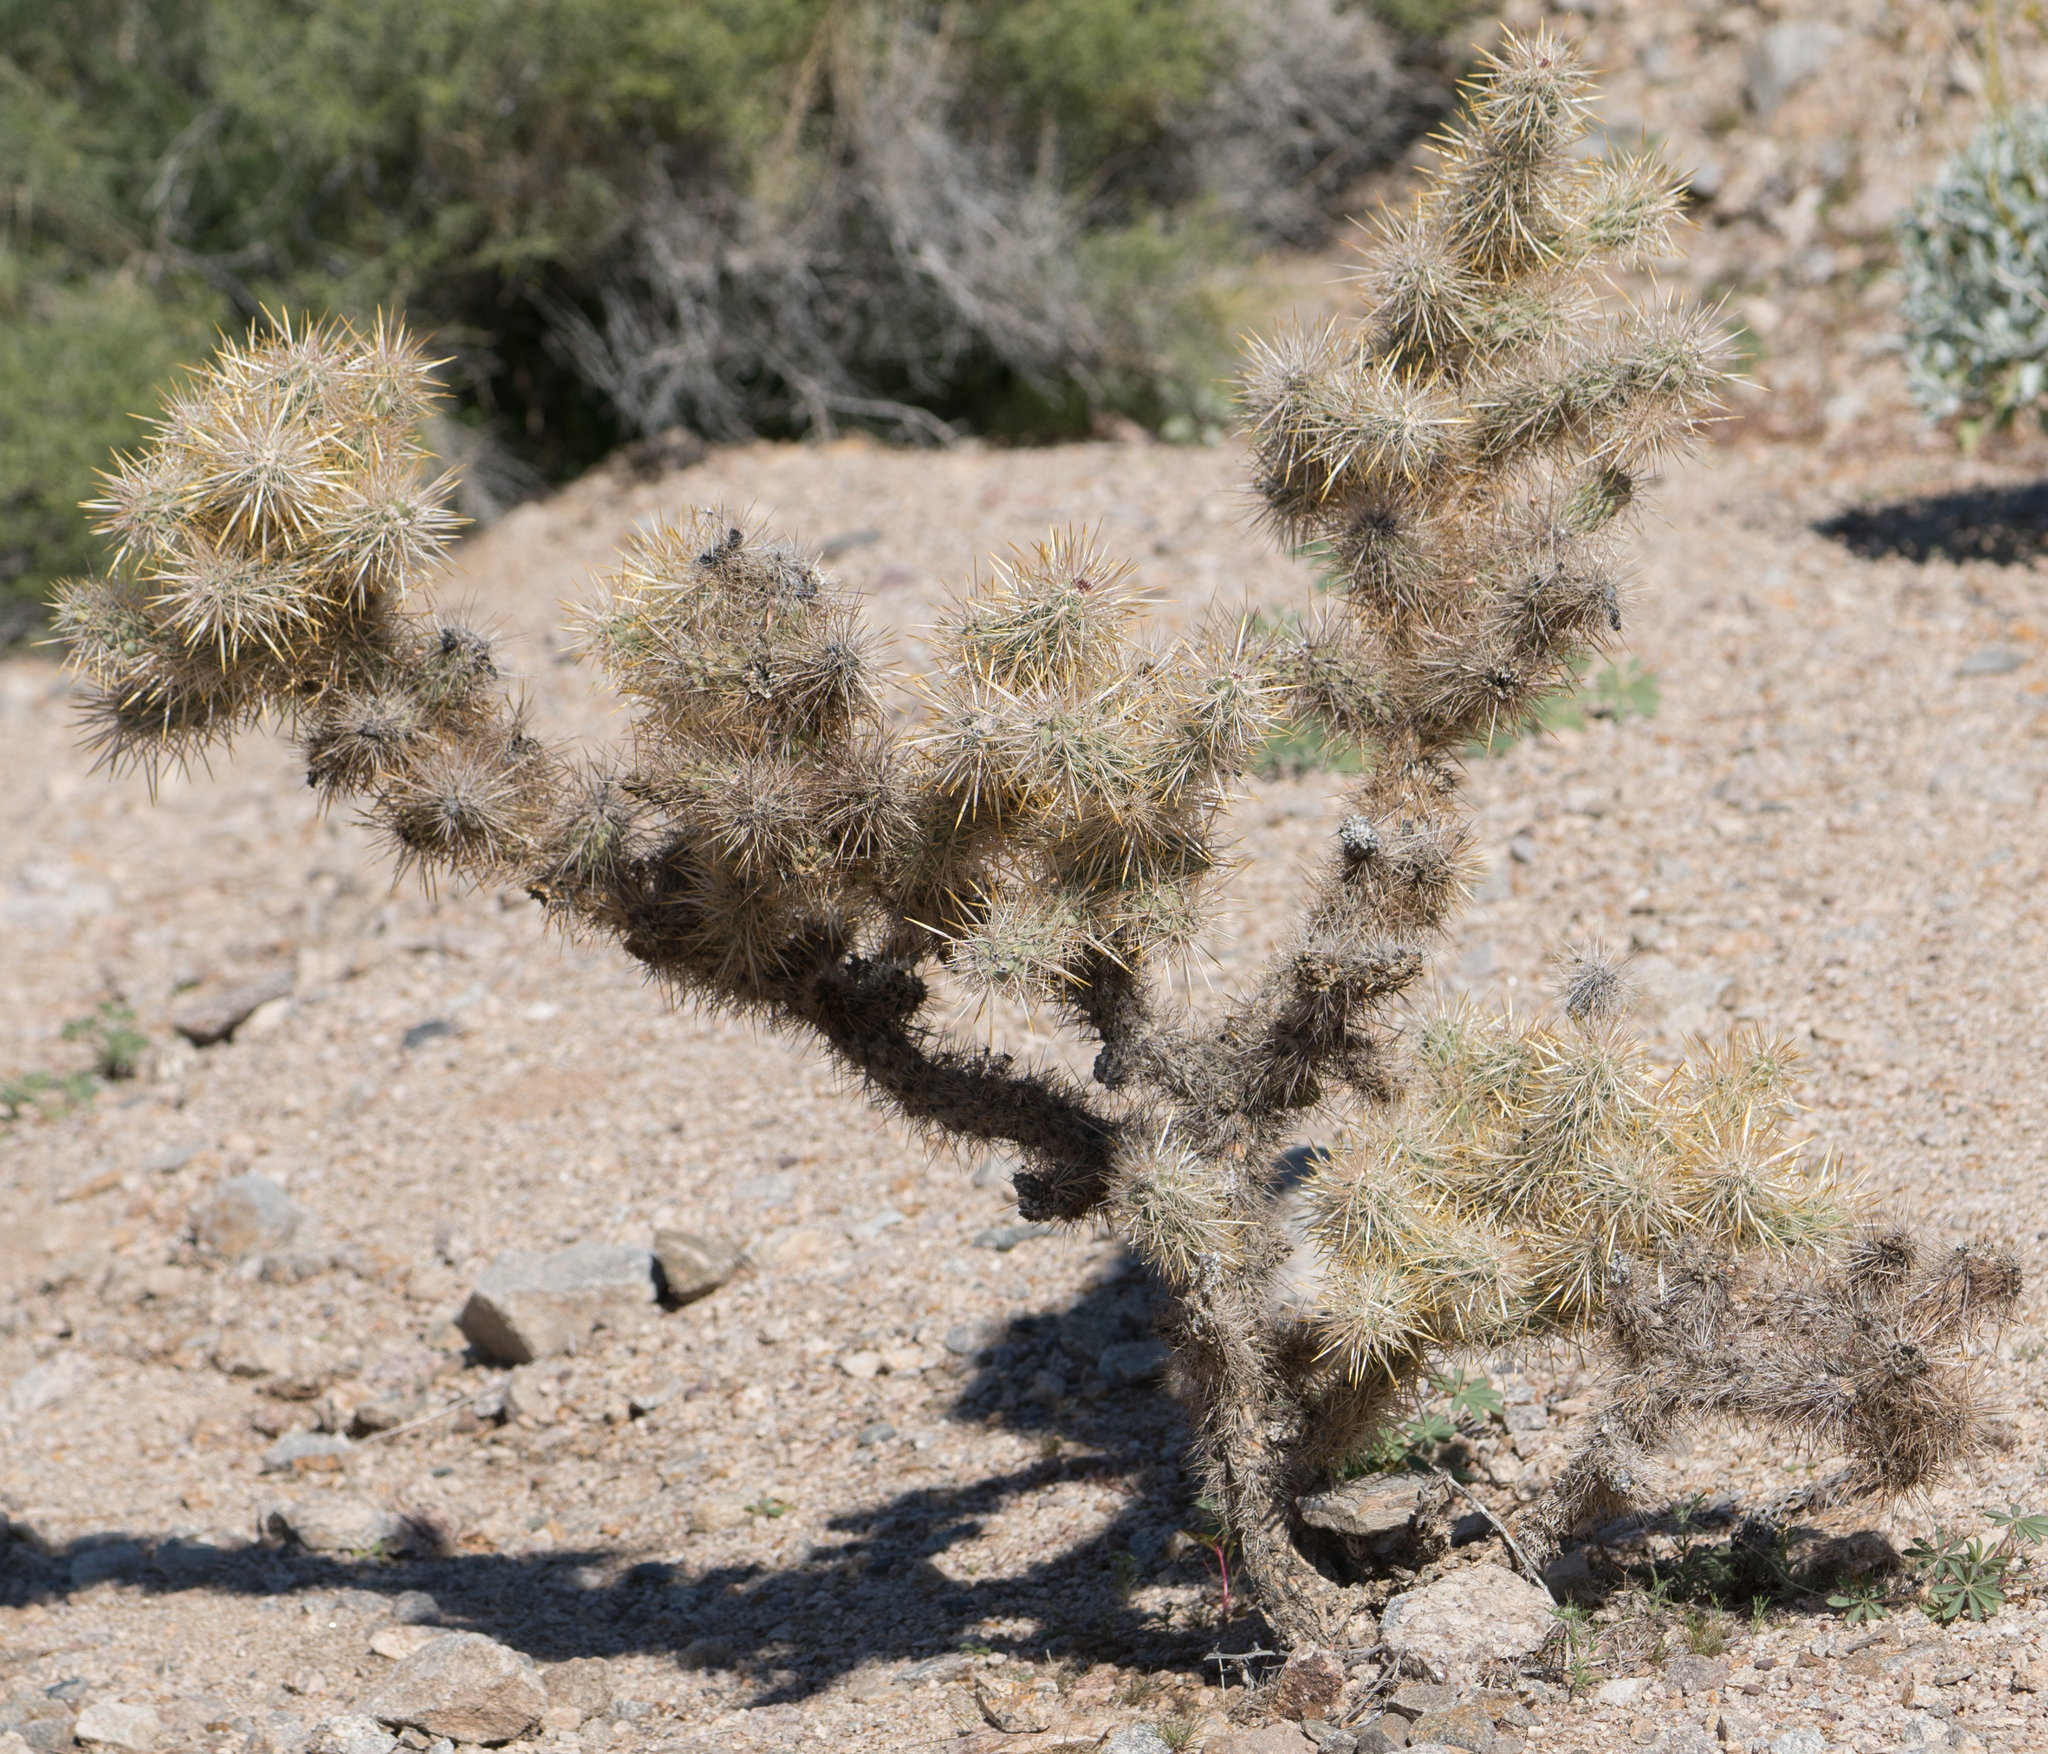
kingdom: Plantae
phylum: Tracheophyta
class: Magnoliopsida
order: Caryophyllales
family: Cactaceae
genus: Cylindropuntia
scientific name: Cylindropuntia echinocarpa
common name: Ground cholla
